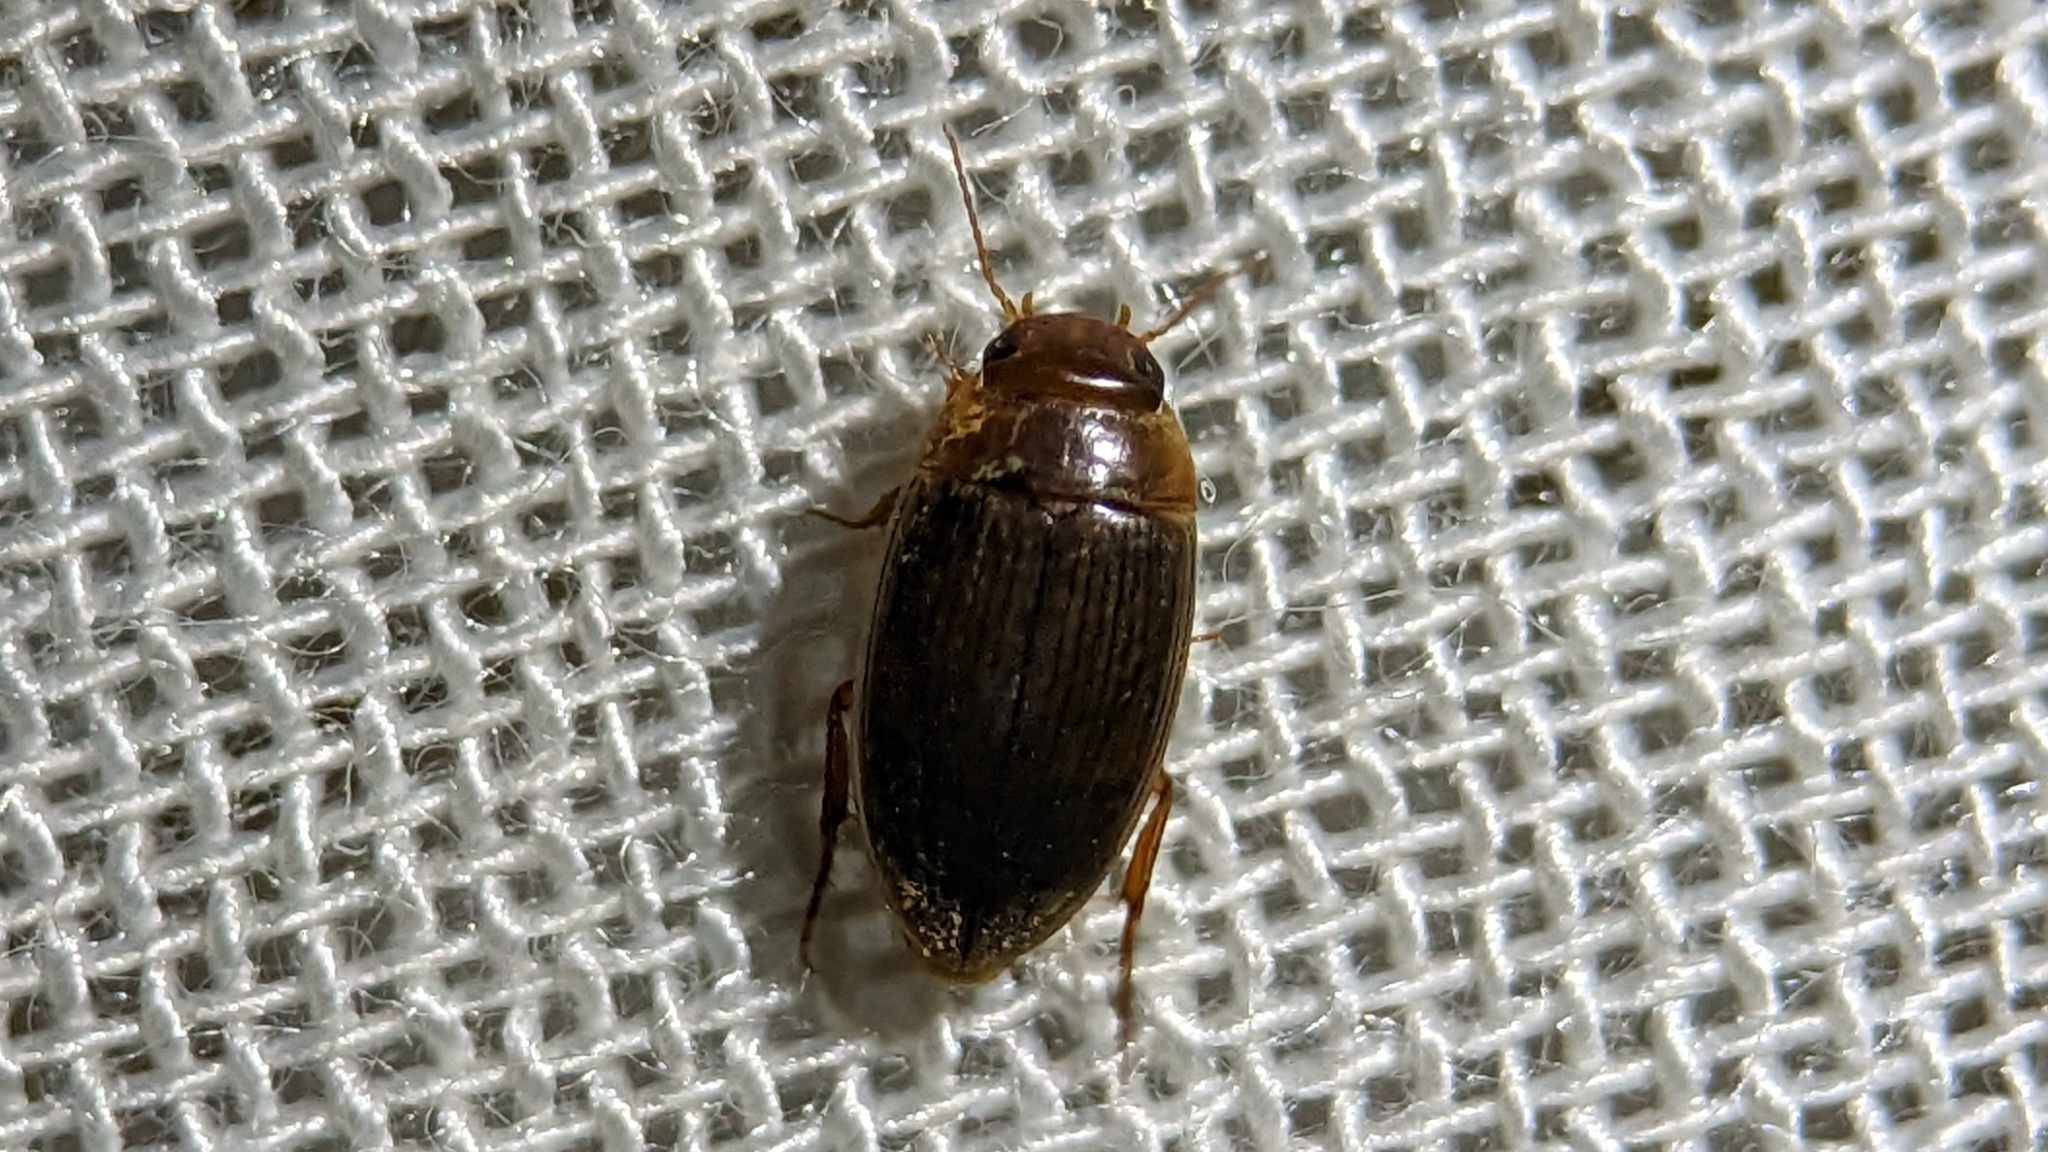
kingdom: Animalia
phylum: Arthropoda
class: Insecta
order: Coleoptera
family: Dytiscidae
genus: Copelatus
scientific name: Copelatus
